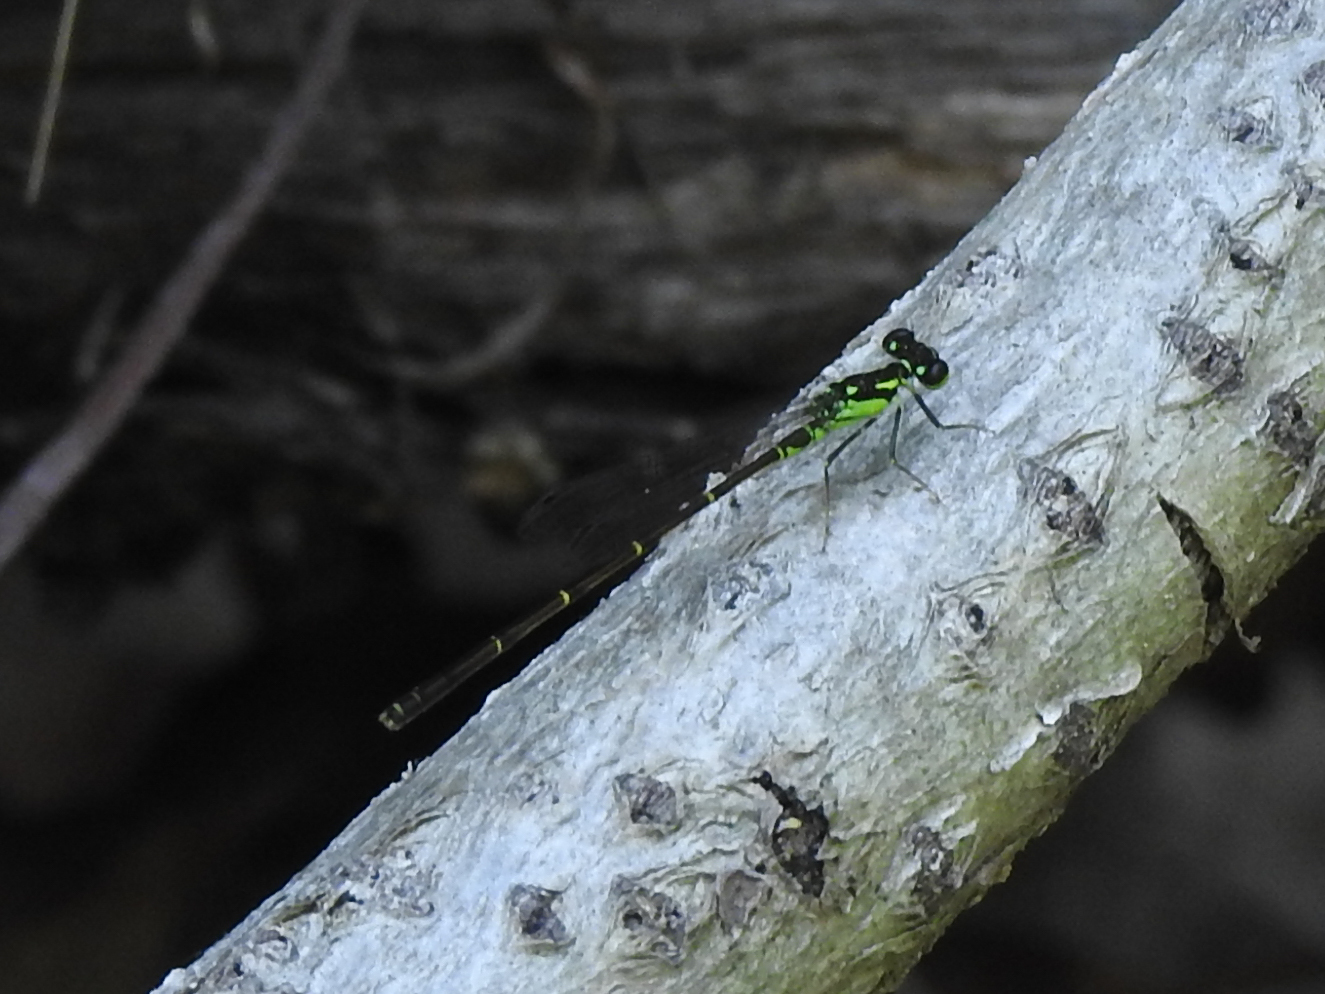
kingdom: Animalia
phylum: Arthropoda
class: Insecta
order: Odonata
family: Coenagrionidae
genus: Ischnura
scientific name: Ischnura posita
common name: Fragile forktail
